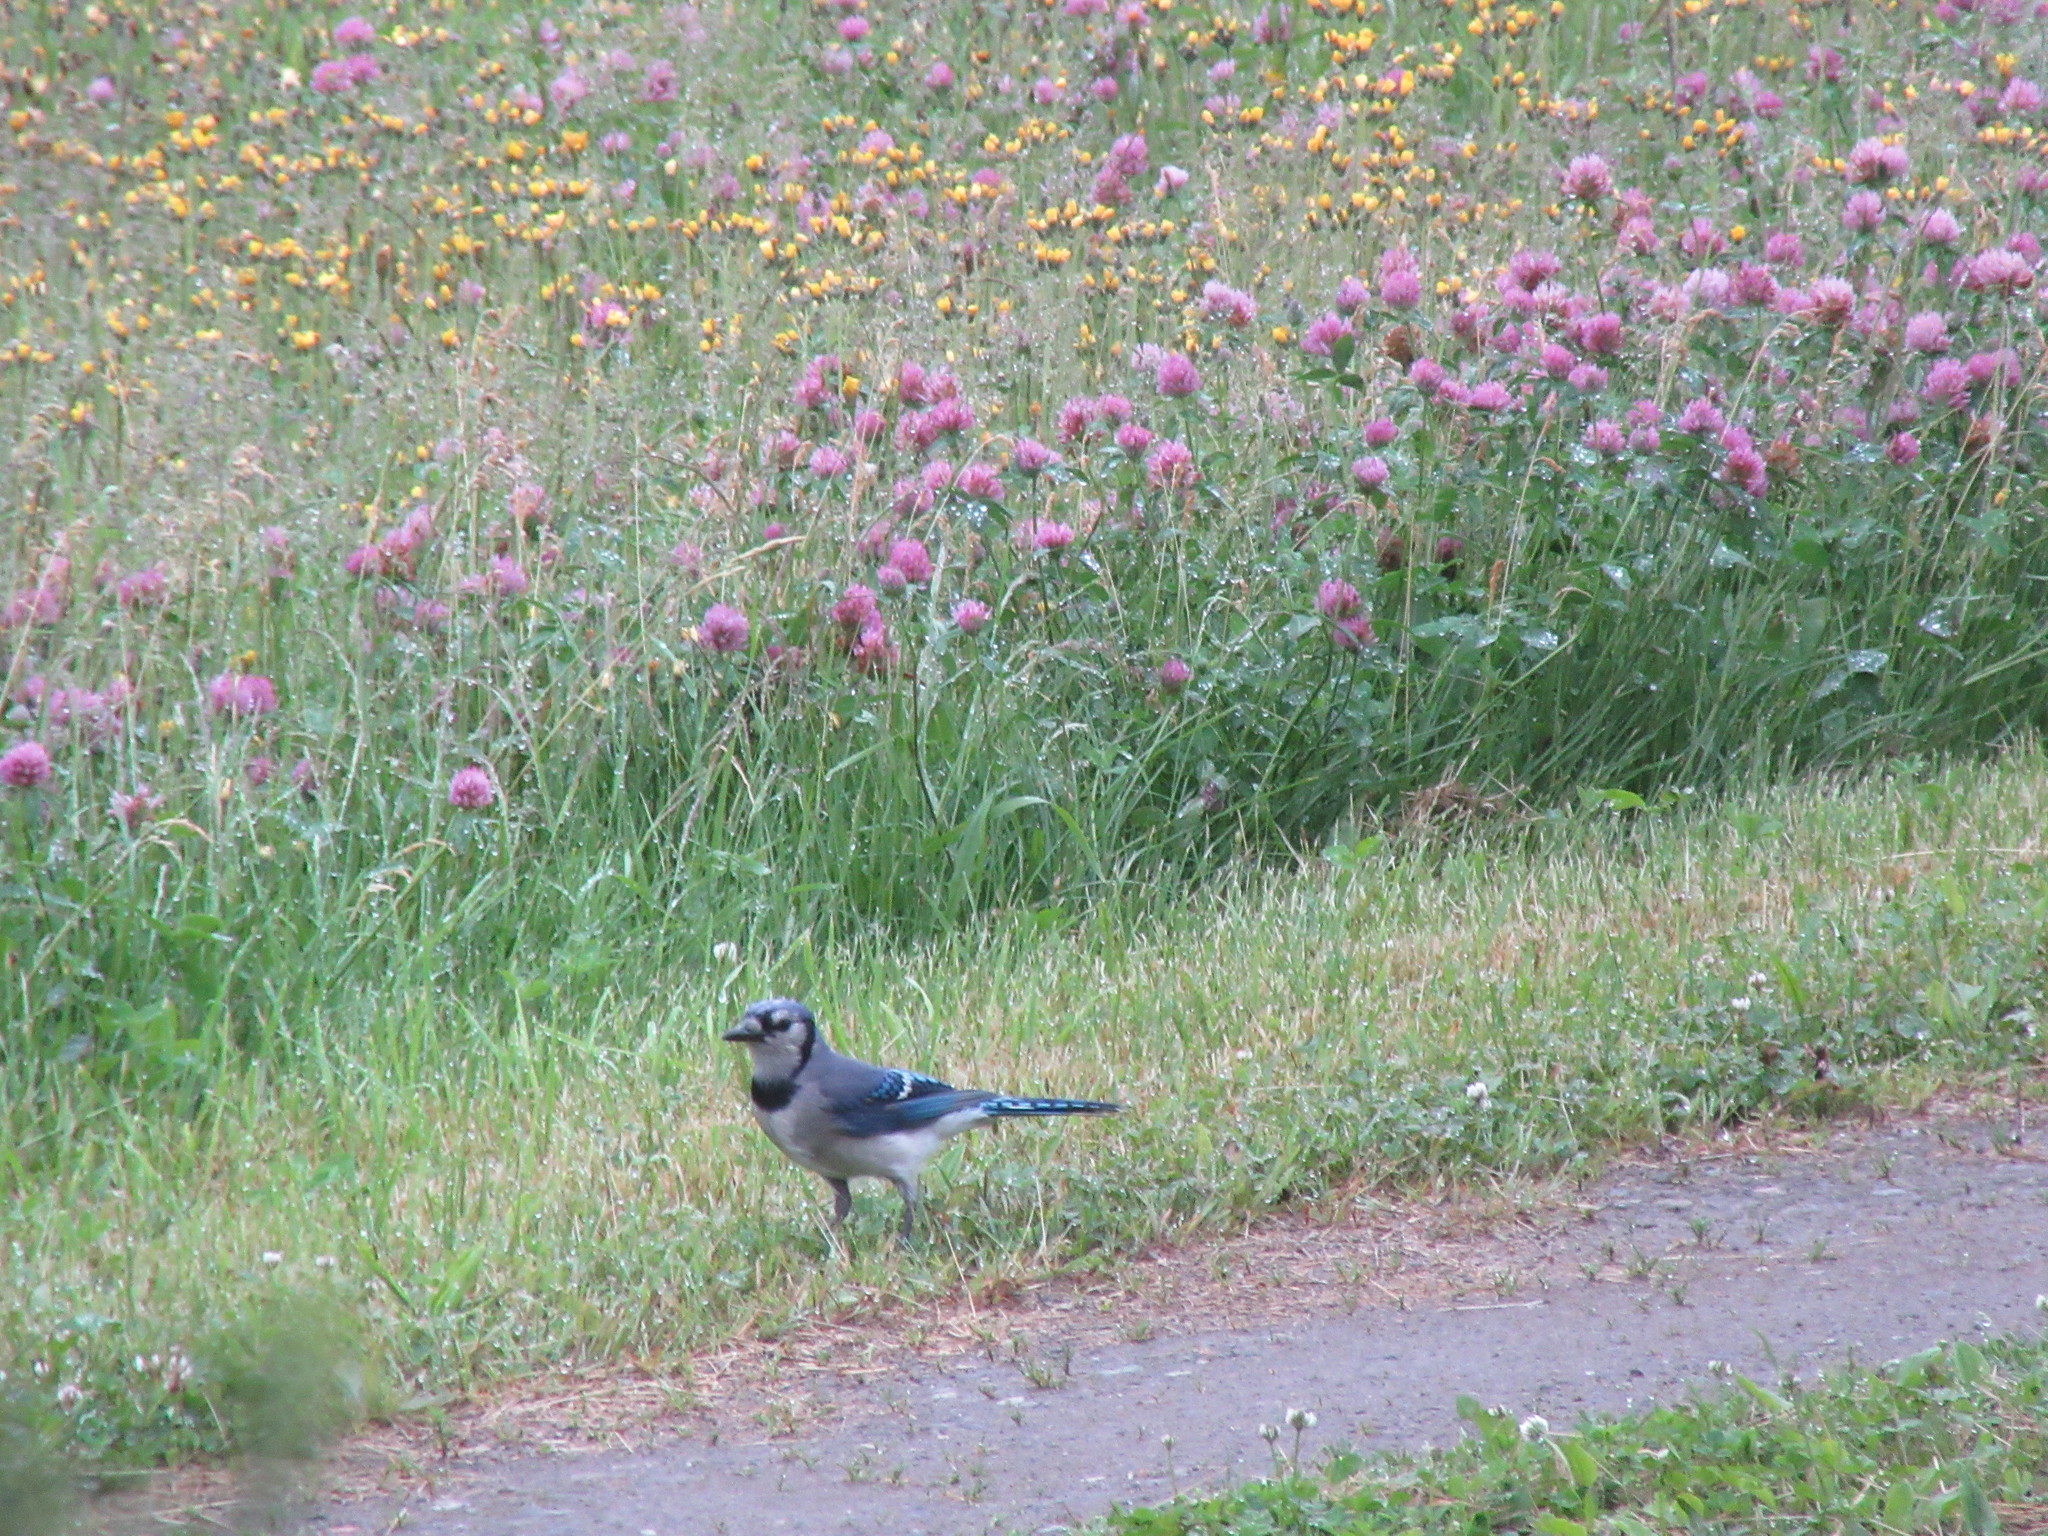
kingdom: Animalia
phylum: Chordata
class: Aves
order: Passeriformes
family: Corvidae
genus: Cyanocitta
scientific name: Cyanocitta cristata
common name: Blue jay
